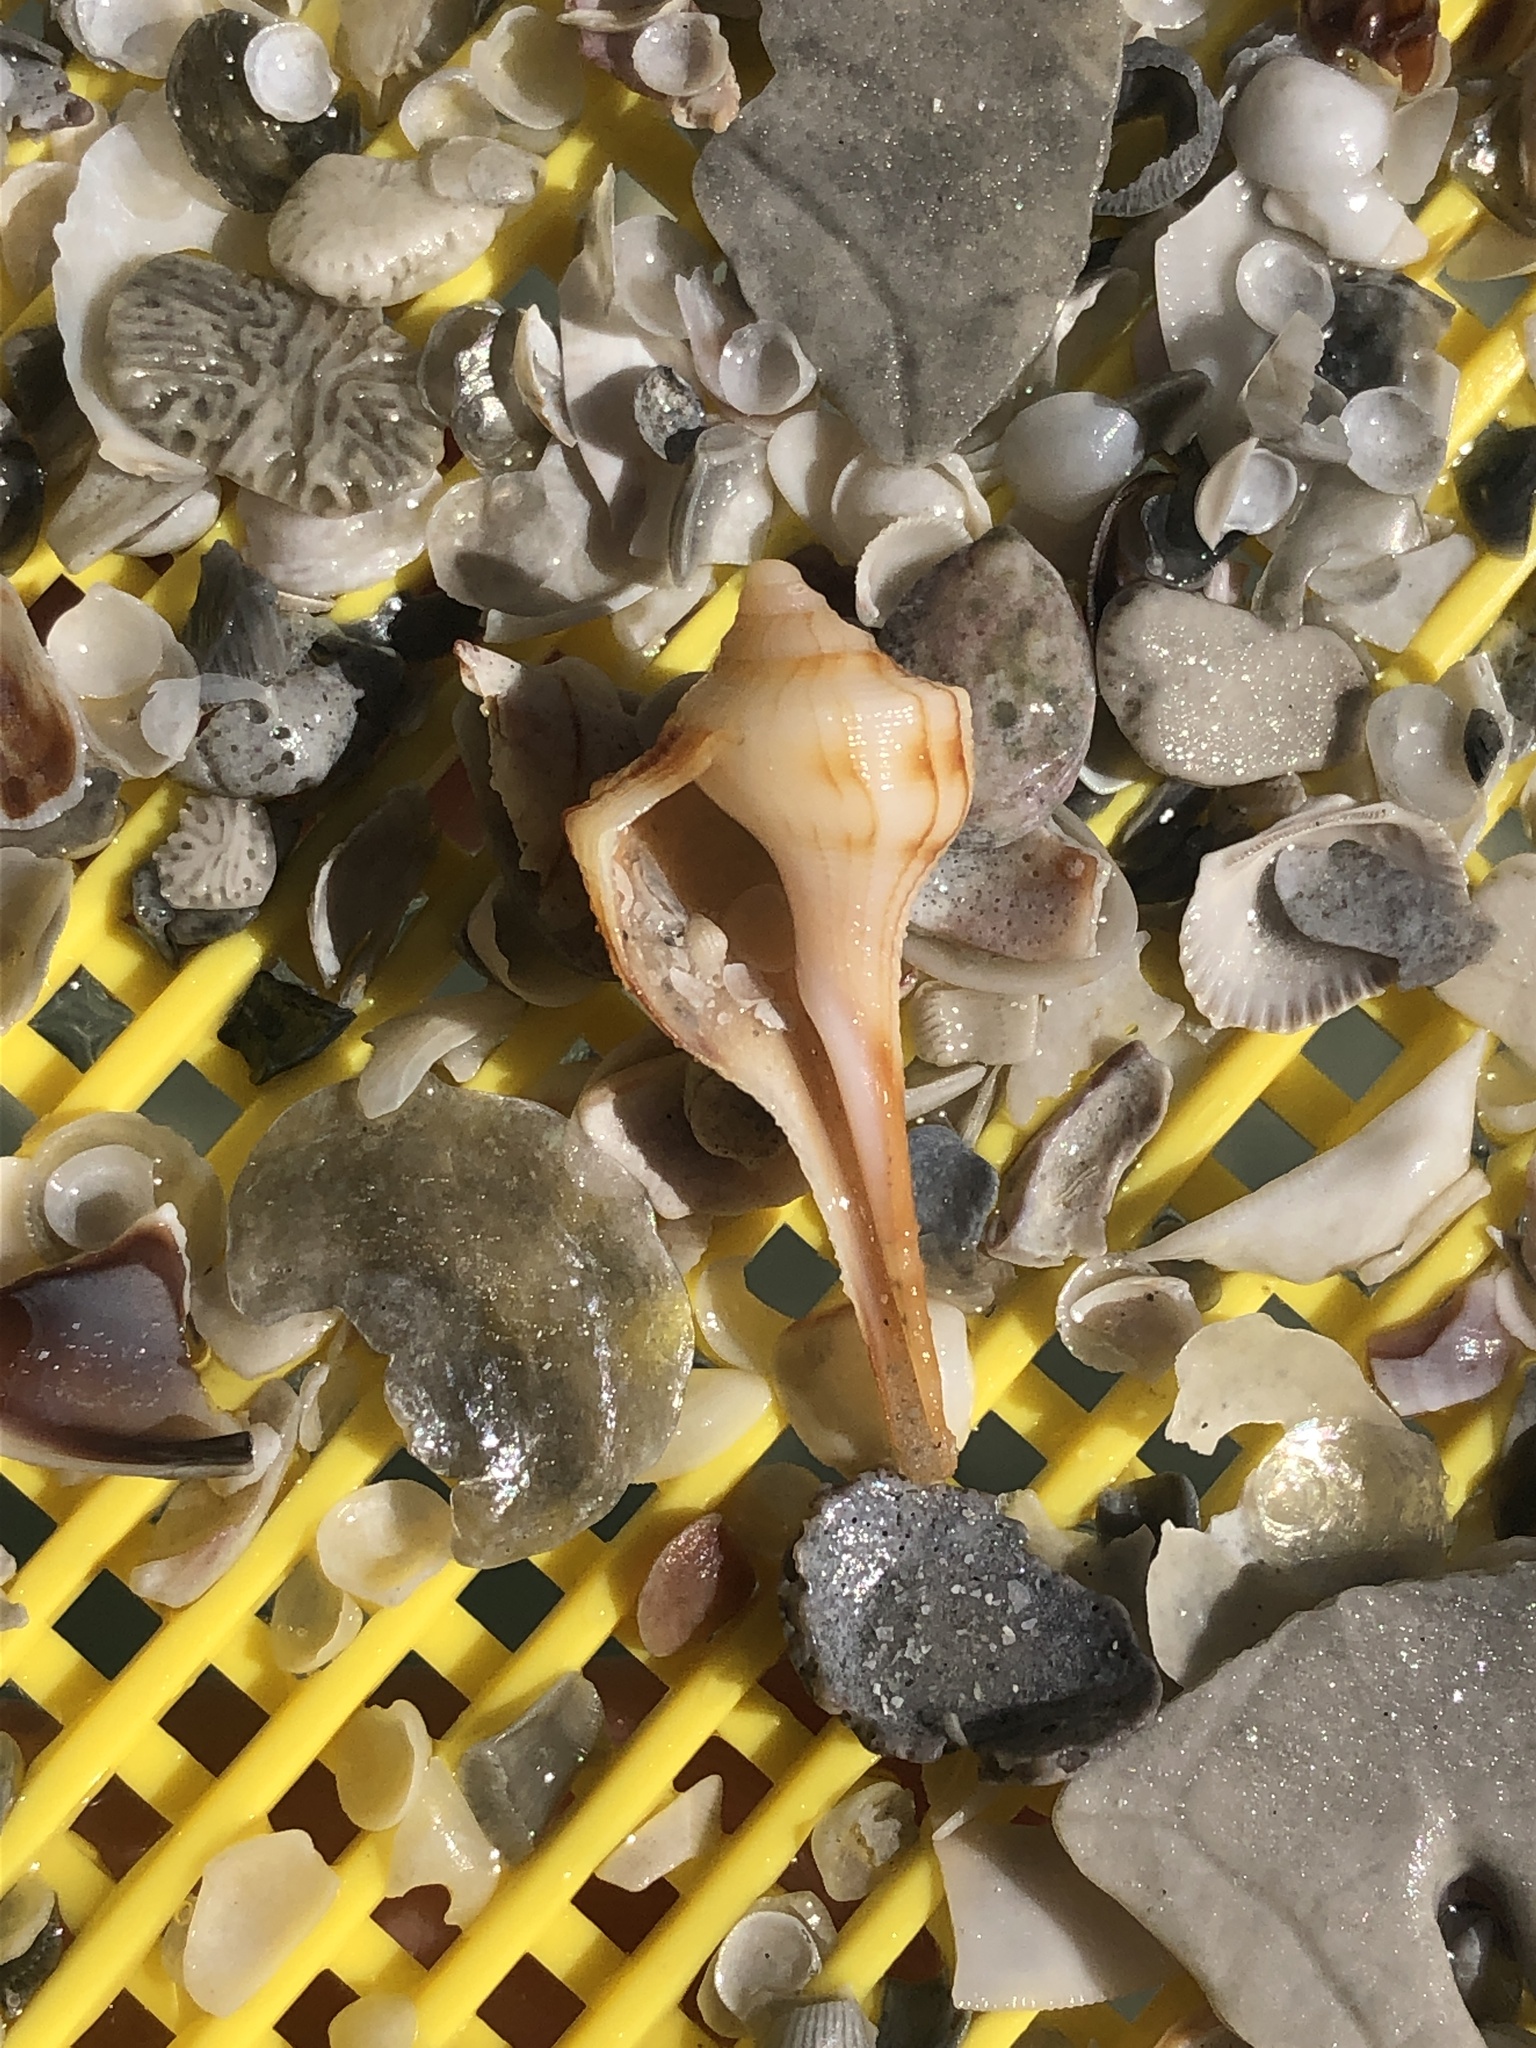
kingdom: Animalia
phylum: Mollusca
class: Gastropoda
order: Neogastropoda
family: Busyconidae
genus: Sinistrofulgur
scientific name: Sinistrofulgur sinistrum
